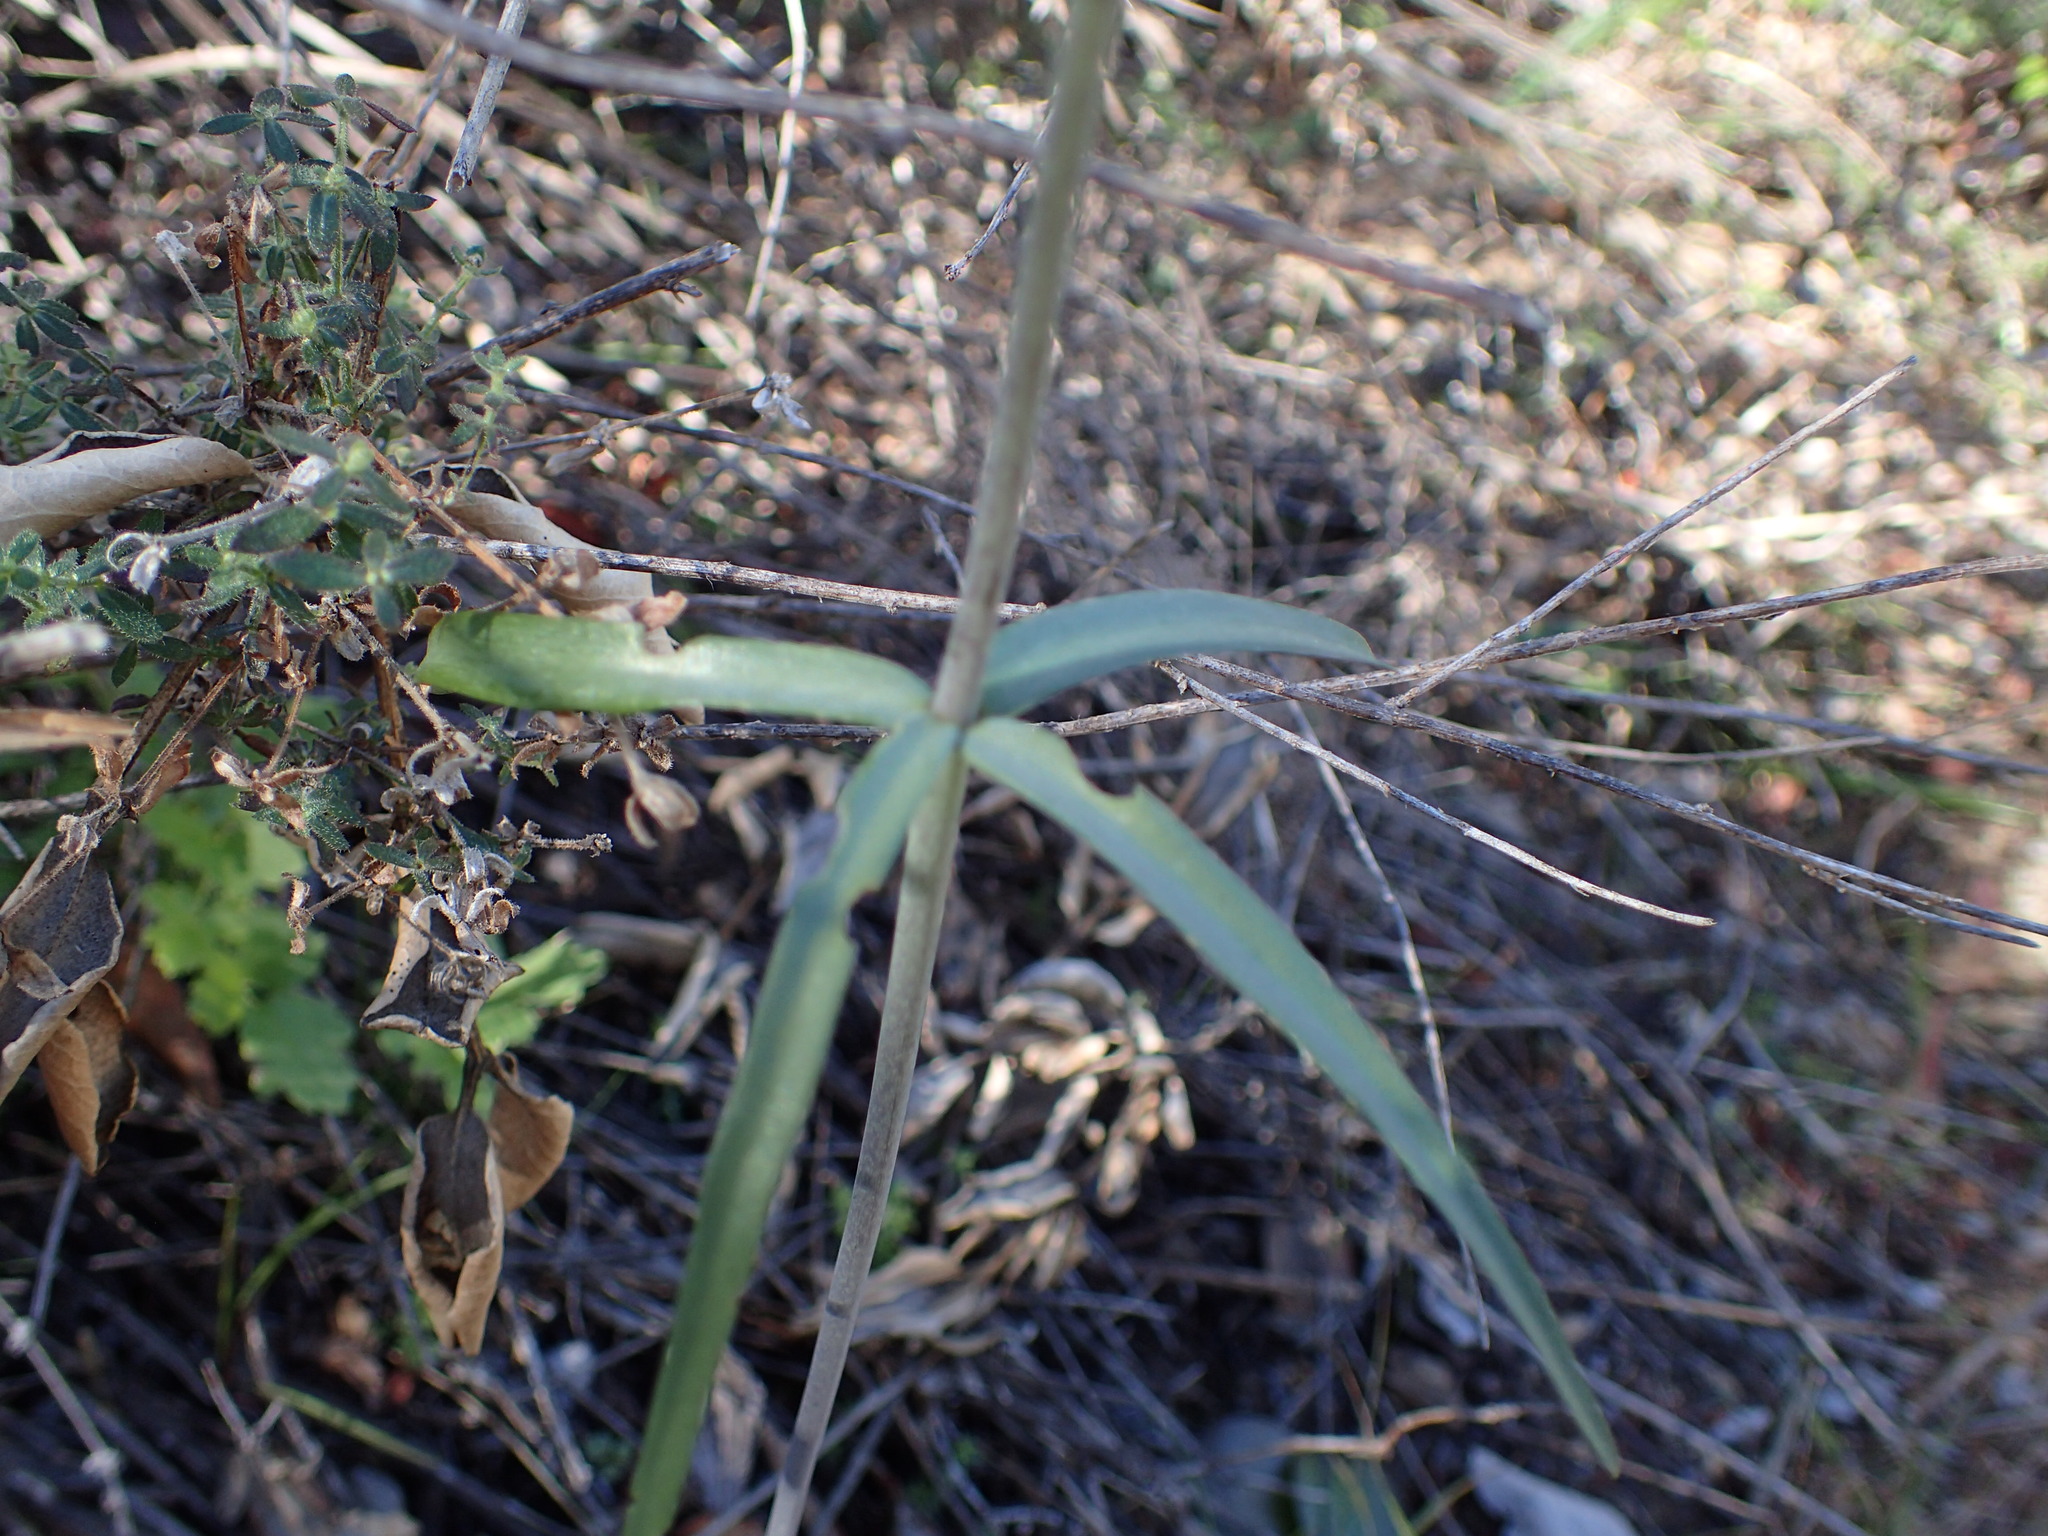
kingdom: Plantae
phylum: Tracheophyta
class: Liliopsida
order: Liliales
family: Liliaceae
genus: Fritillaria
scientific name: Fritillaria ojaiensis
